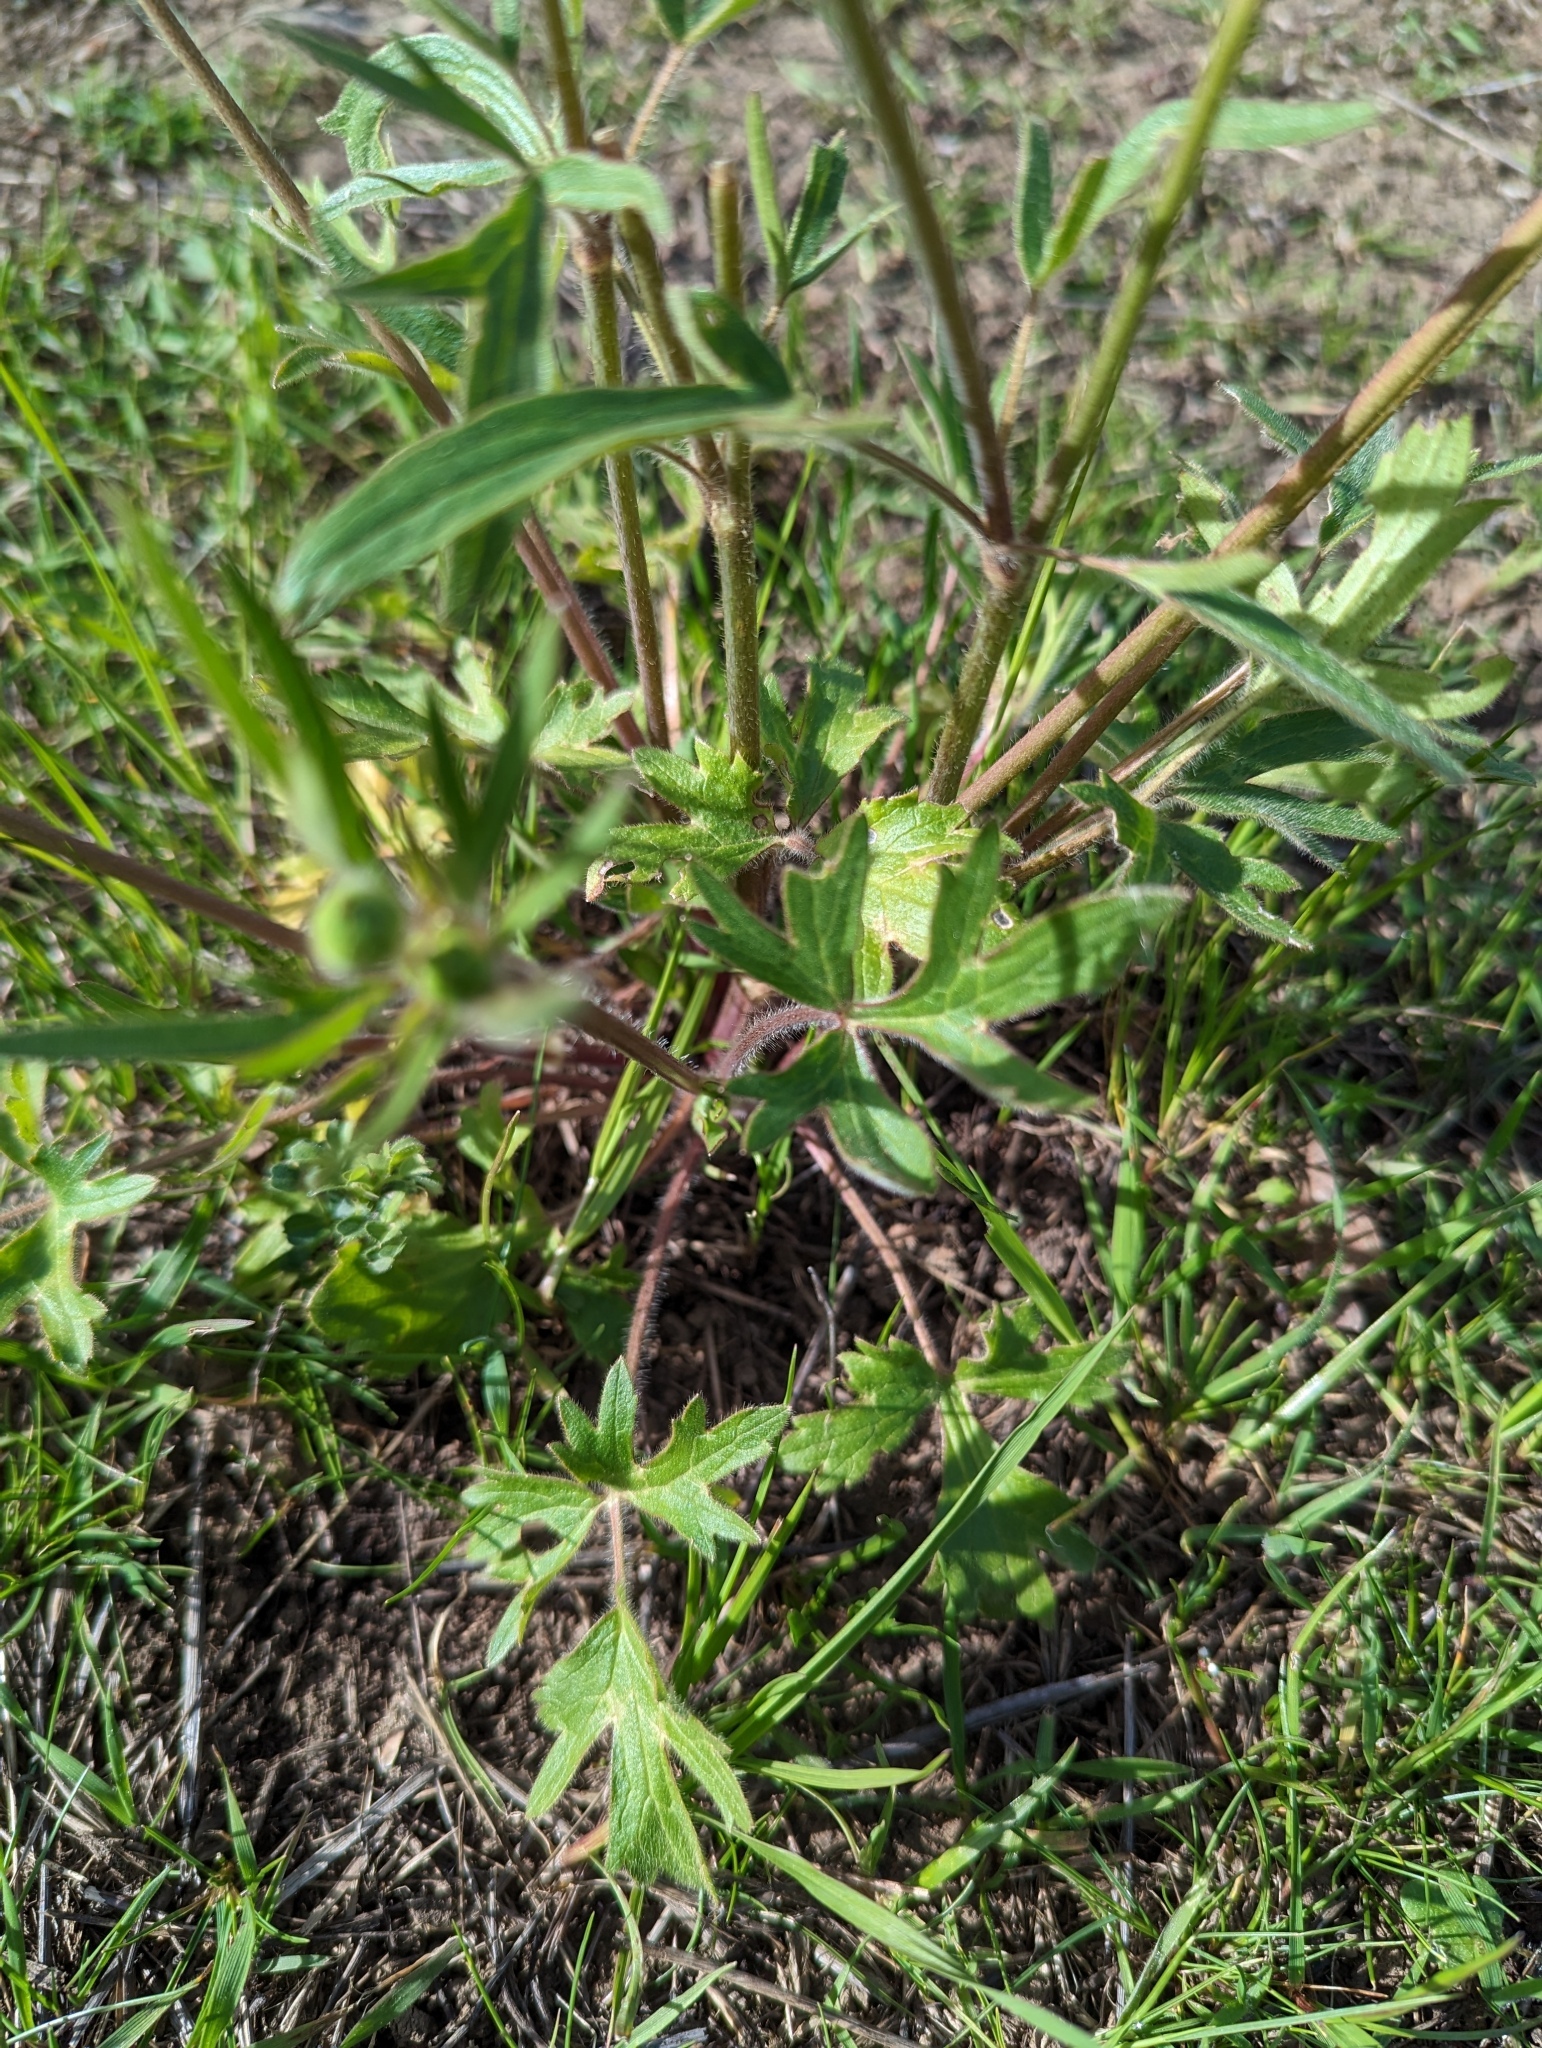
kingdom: Plantae
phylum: Tracheophyta
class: Magnoliopsida
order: Ranunculales
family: Ranunculaceae
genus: Ranunculus
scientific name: Ranunculus californicus
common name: California buttercup
